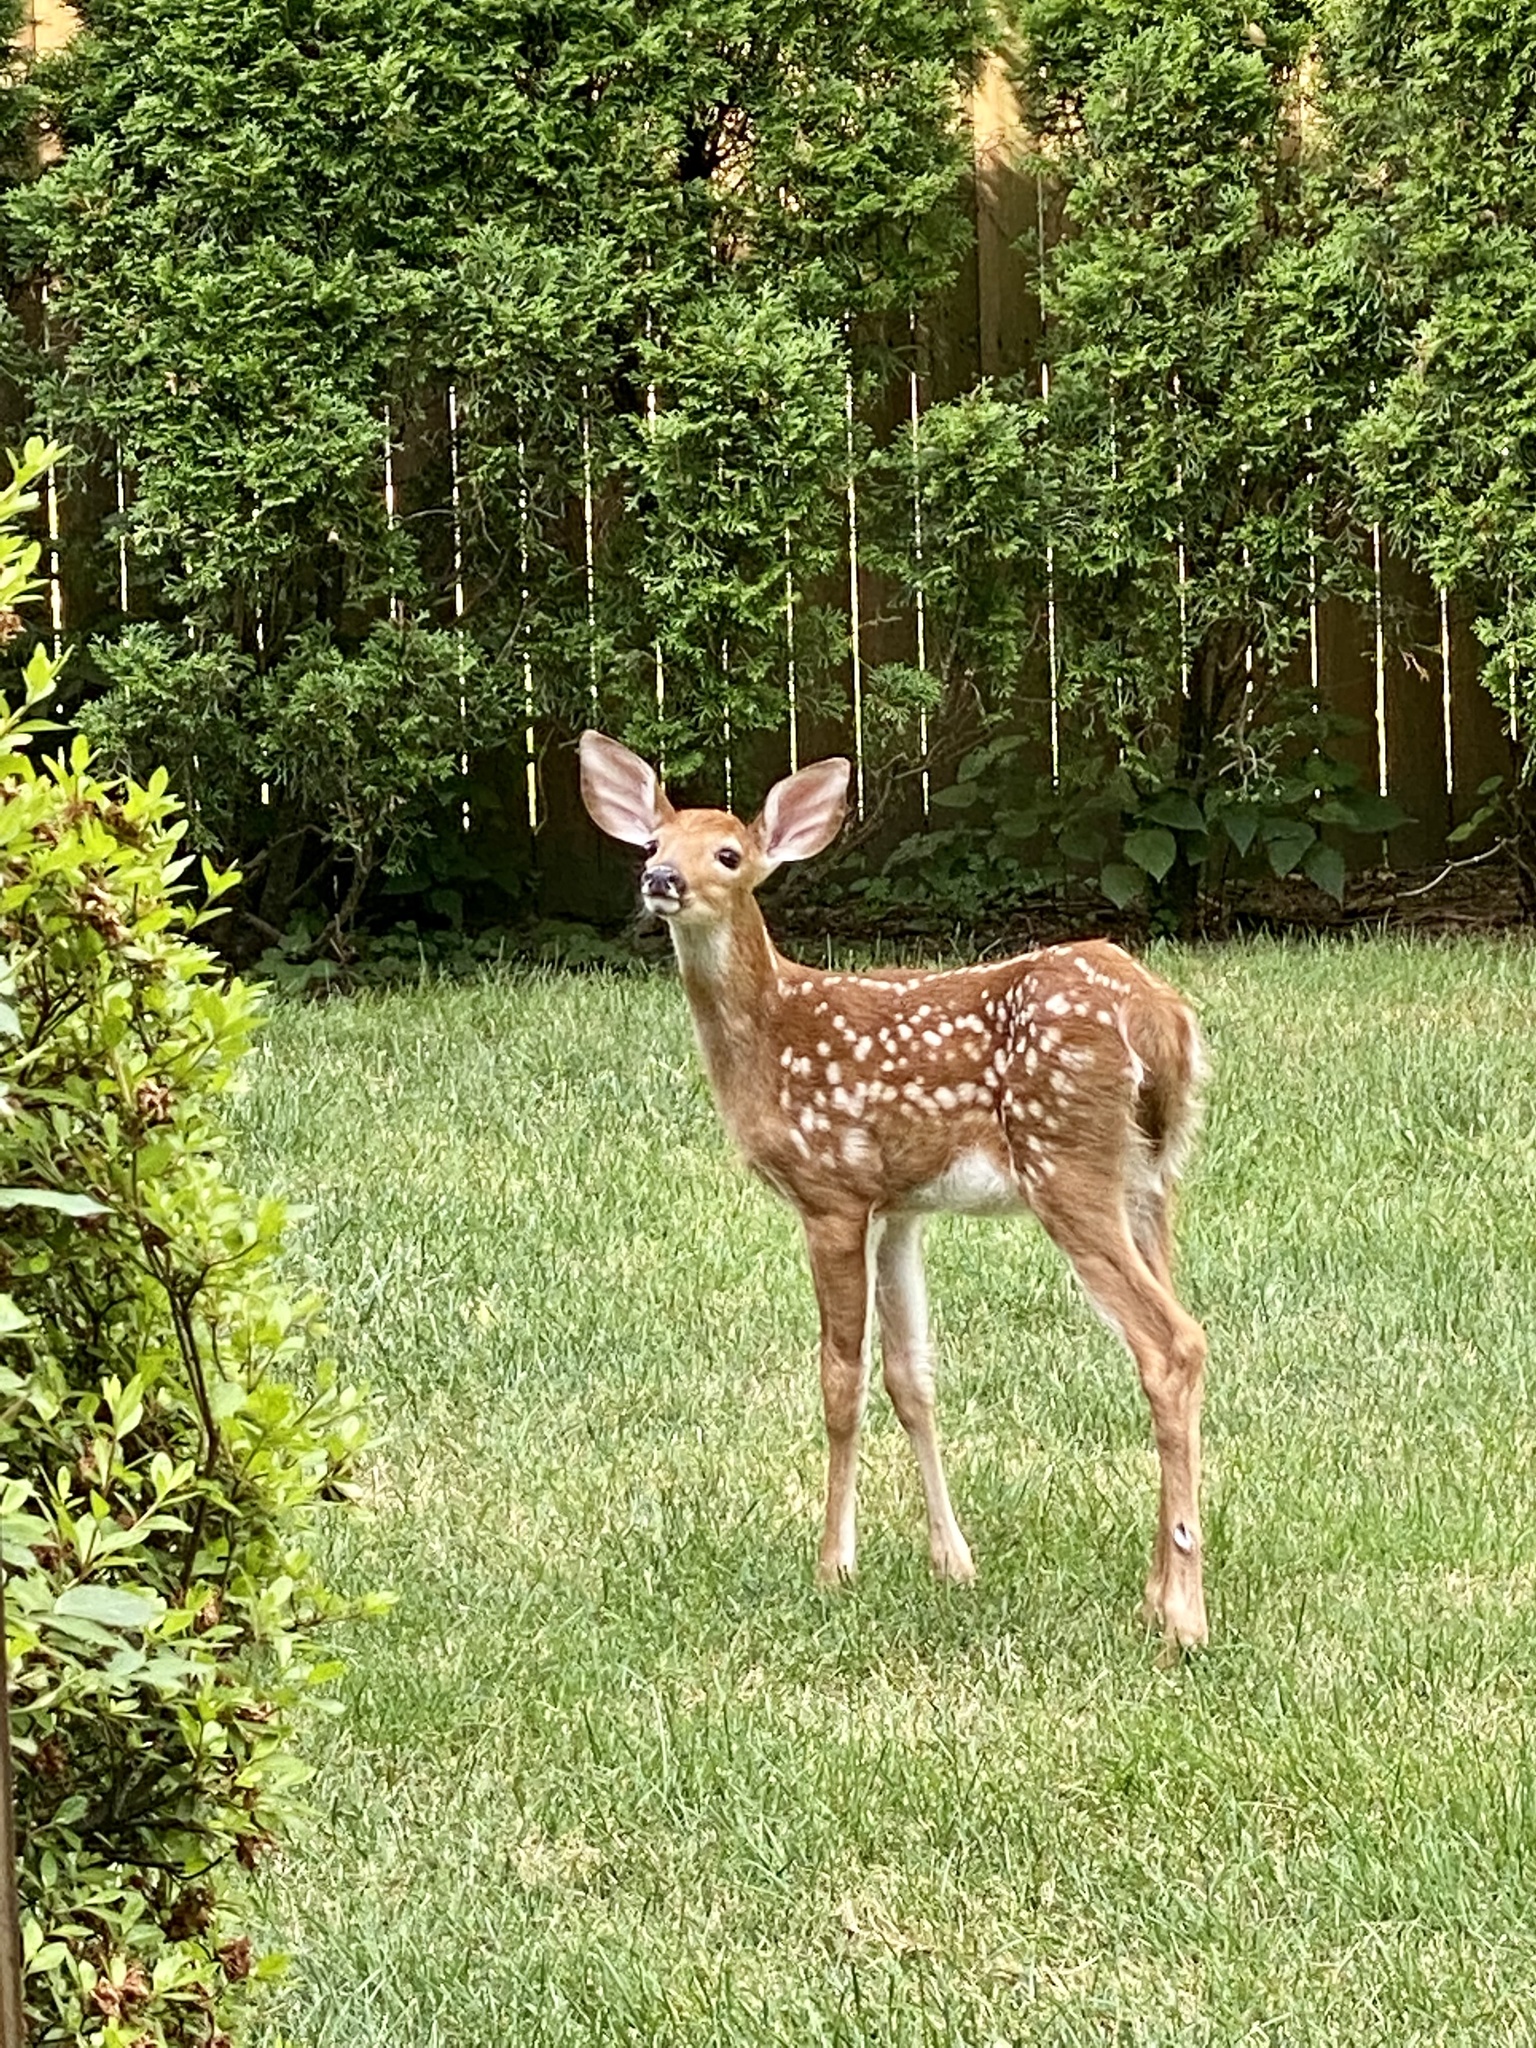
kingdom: Animalia
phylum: Chordata
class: Mammalia
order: Artiodactyla
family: Cervidae
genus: Odocoileus
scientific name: Odocoileus virginianus
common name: White-tailed deer
